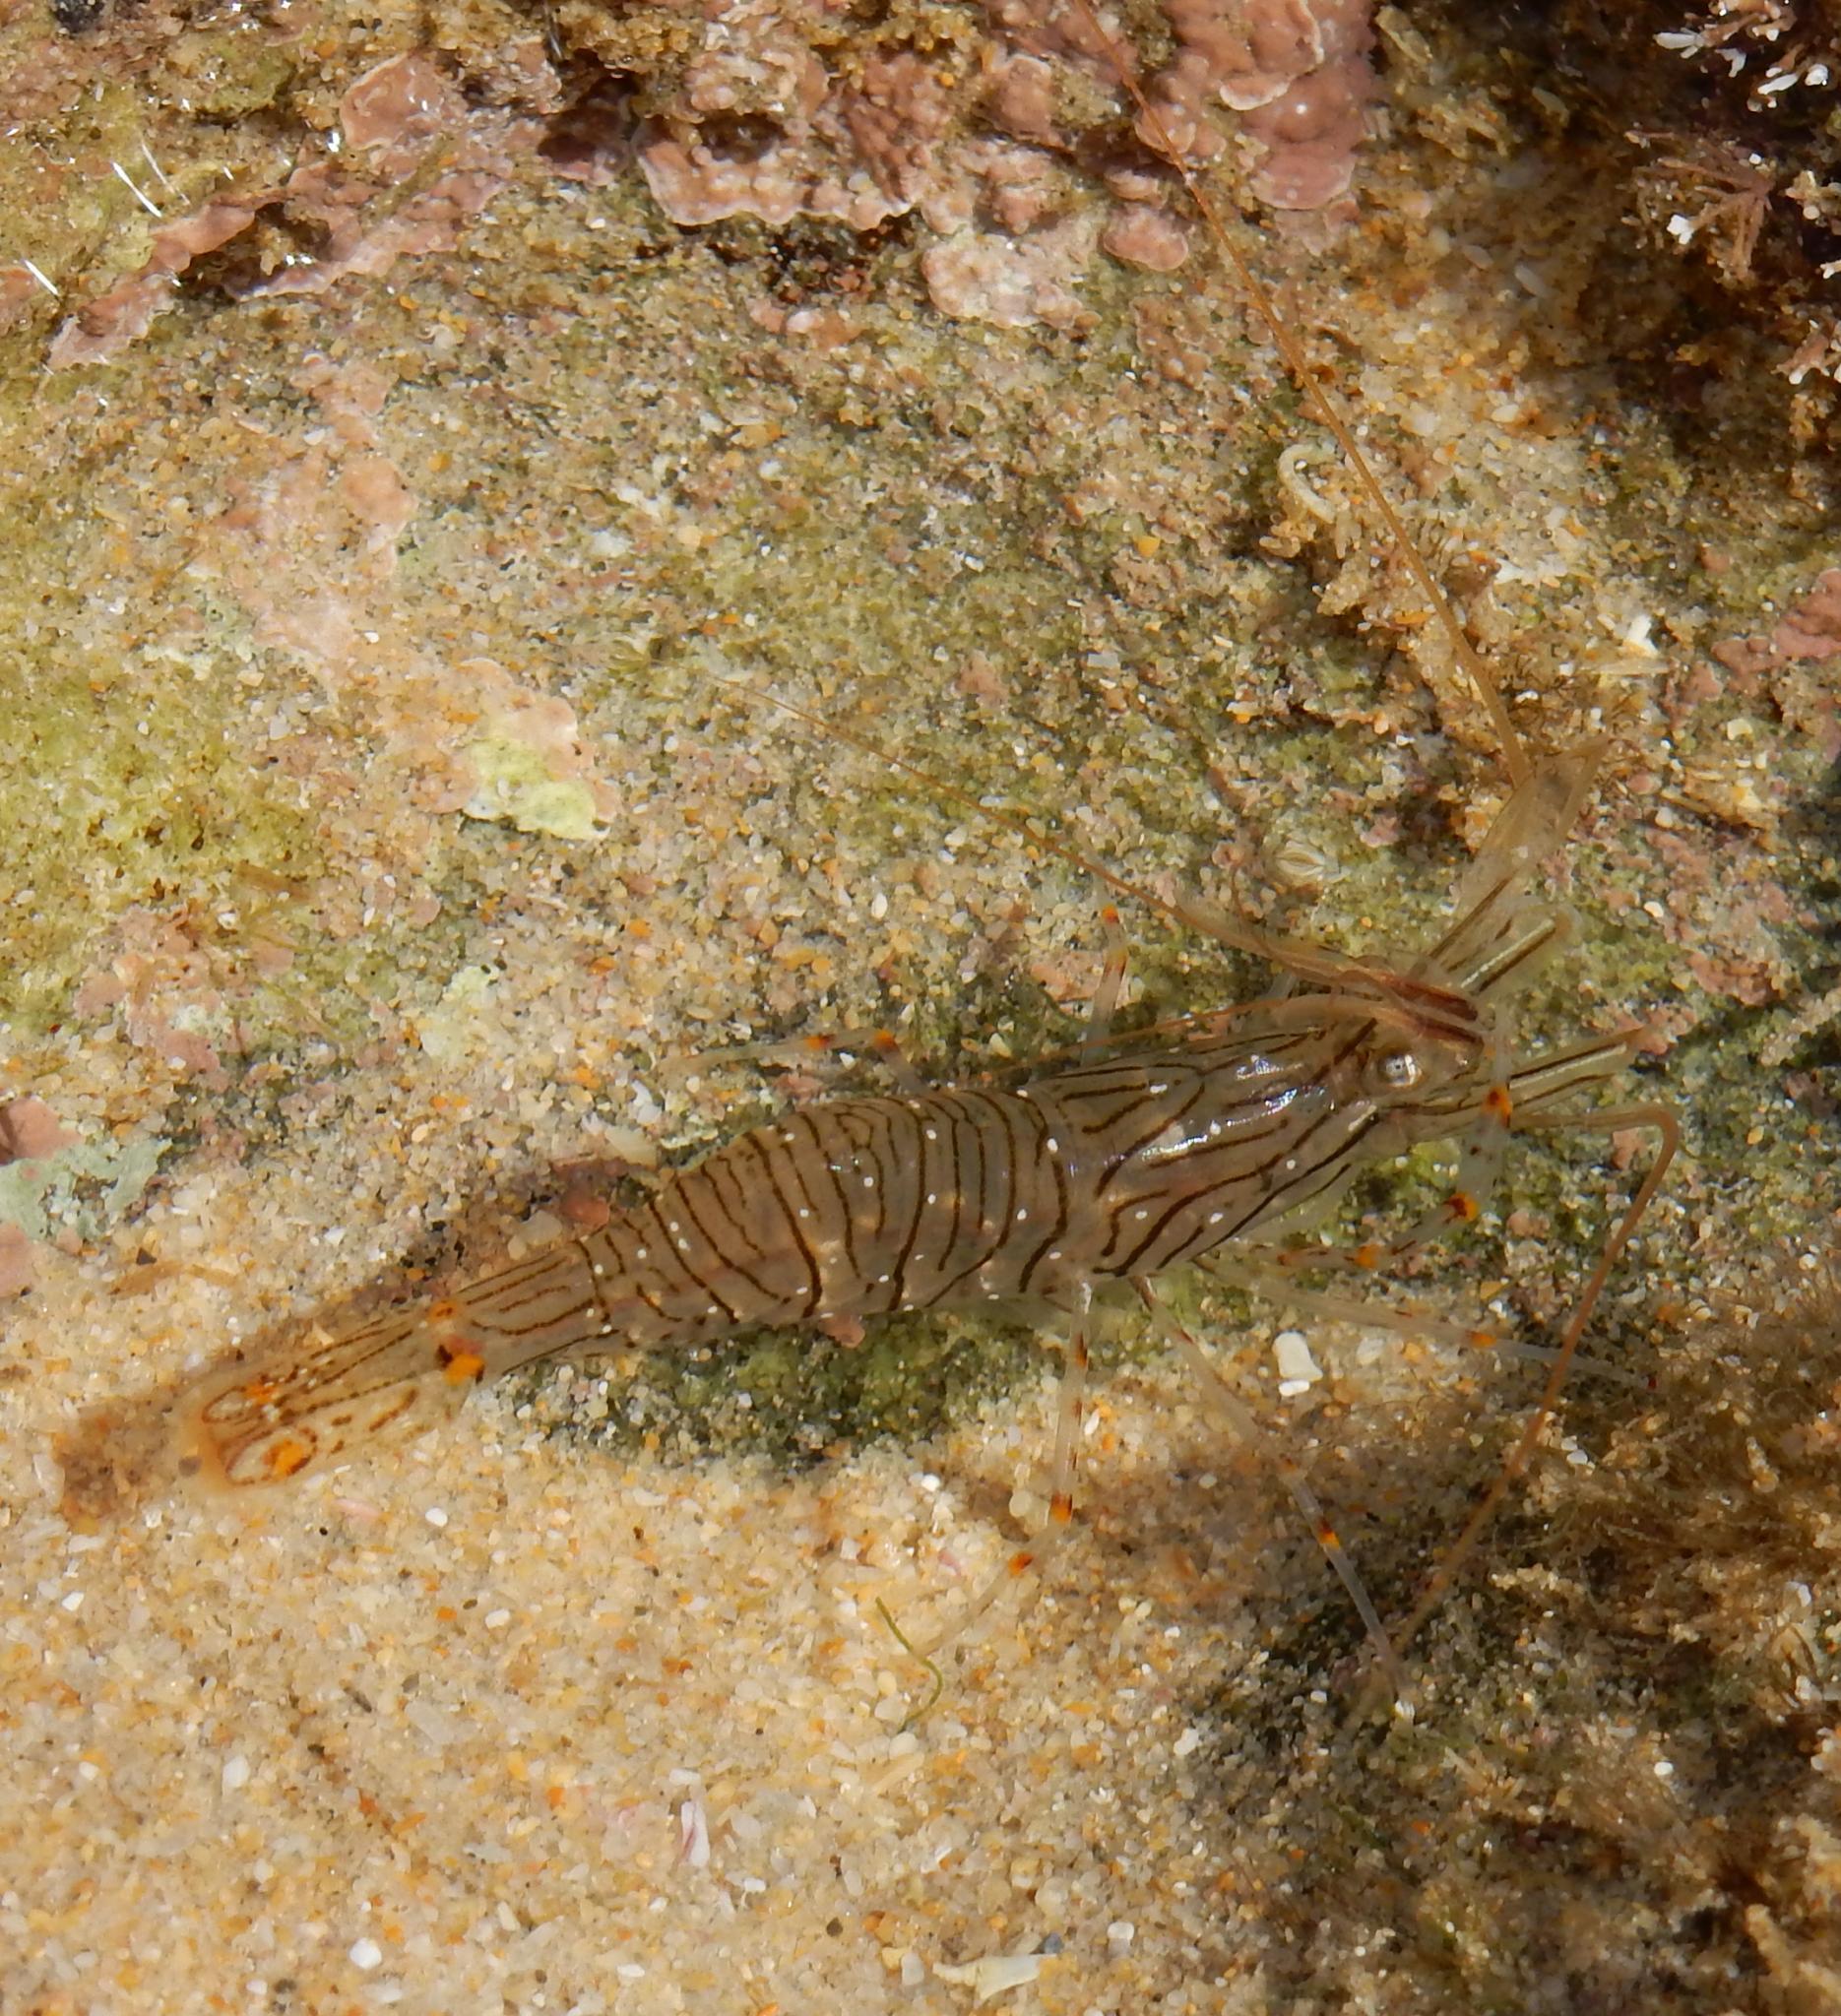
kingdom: Animalia
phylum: Arthropoda
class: Malacostraca
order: Decapoda
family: Palaemonidae
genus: Palaemon
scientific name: Palaemon peringueyi
